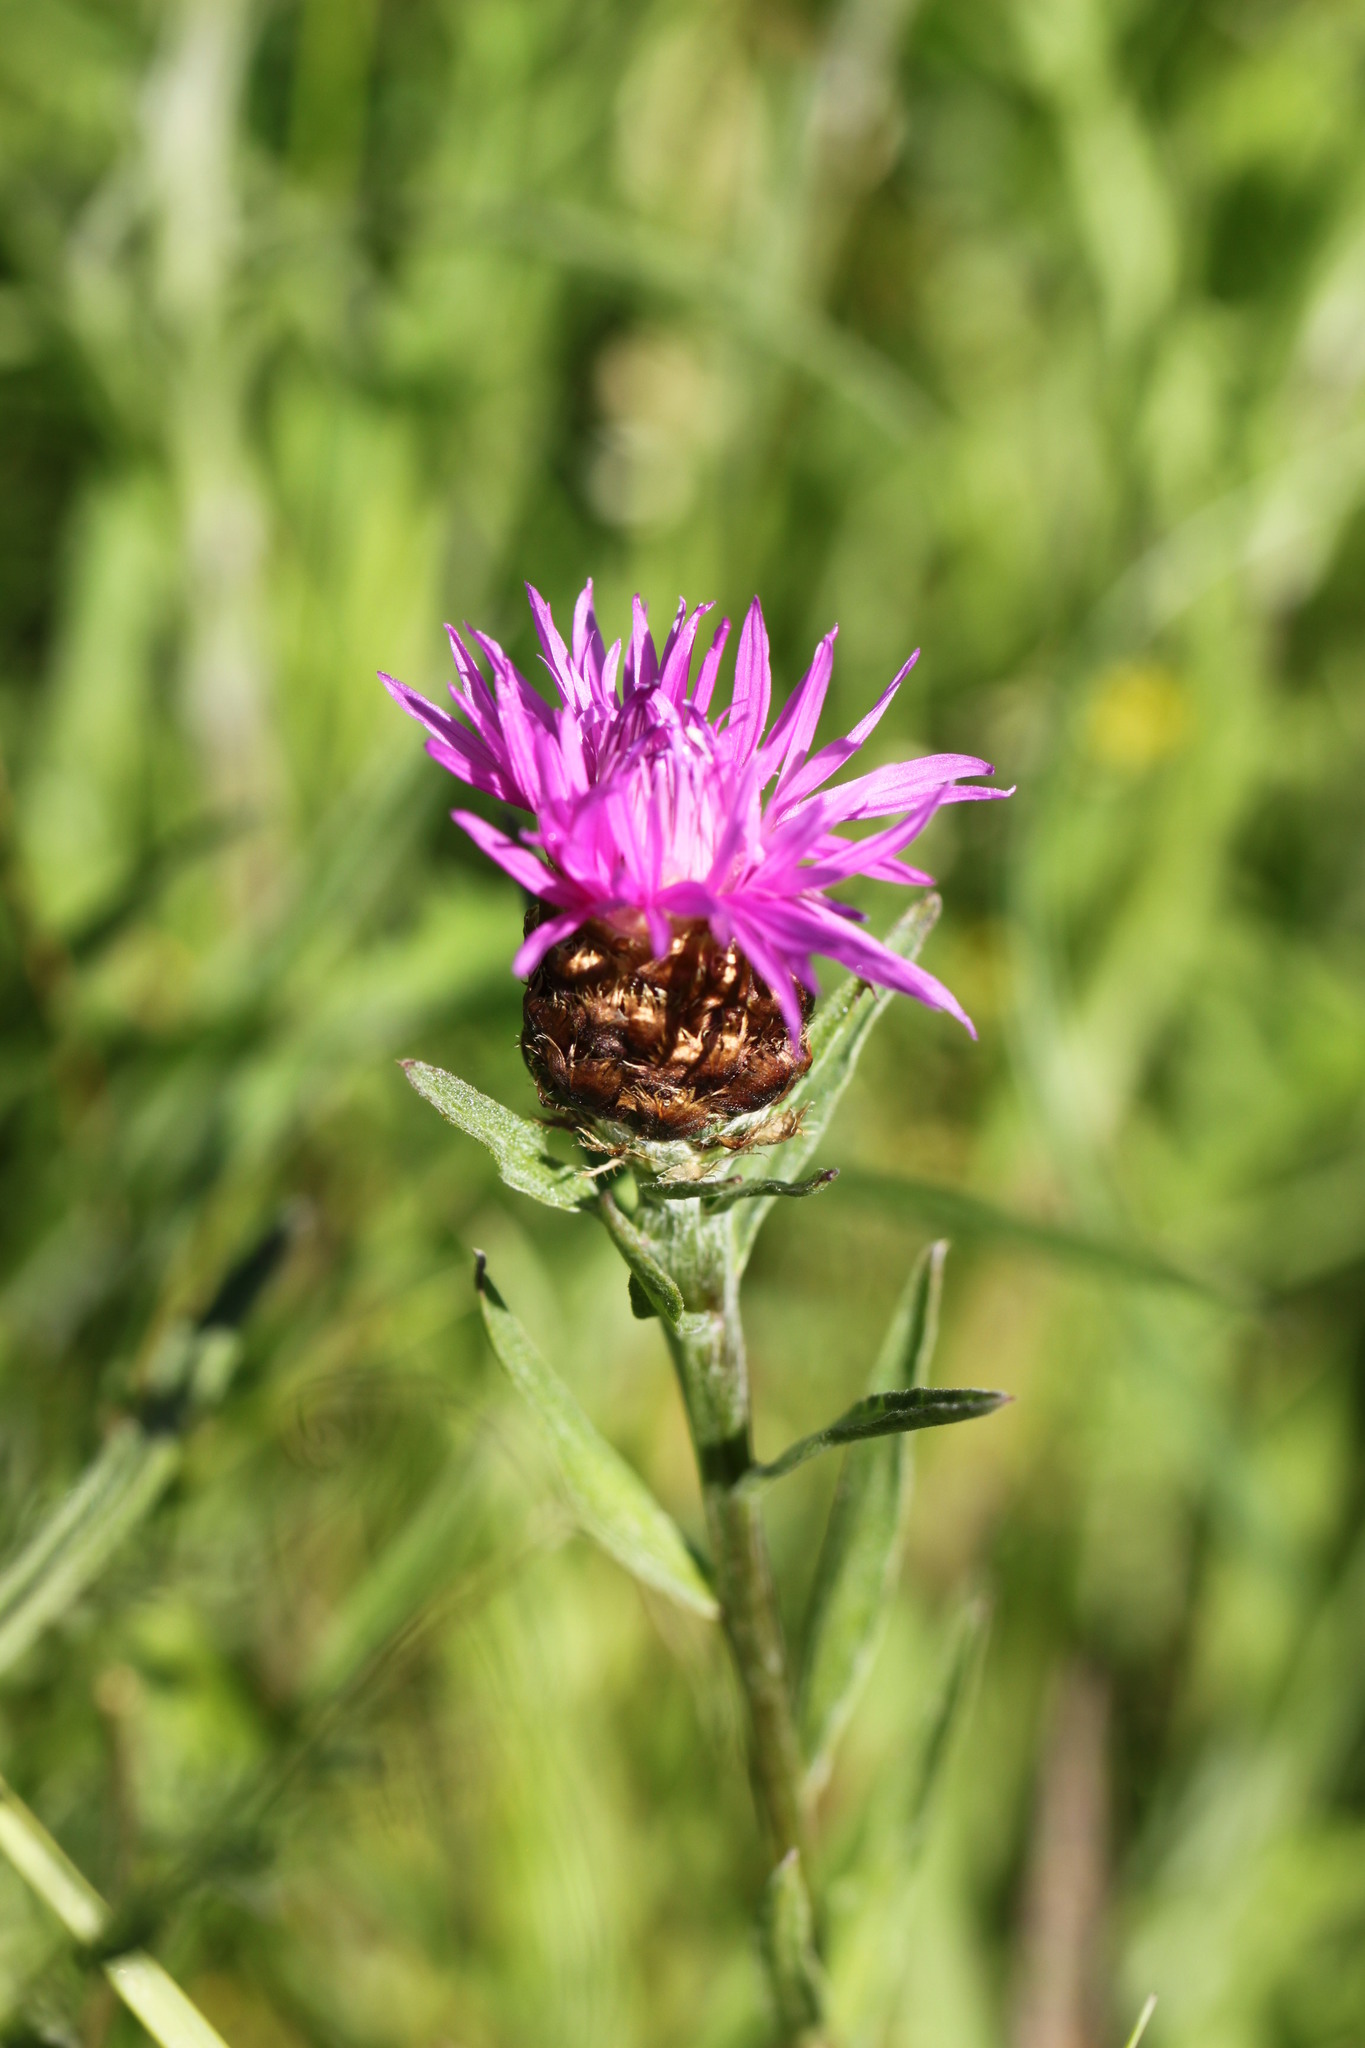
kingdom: Plantae
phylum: Tracheophyta
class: Magnoliopsida
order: Asterales
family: Asteraceae
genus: Centaurea
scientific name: Centaurea jacea
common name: Brown knapweed
